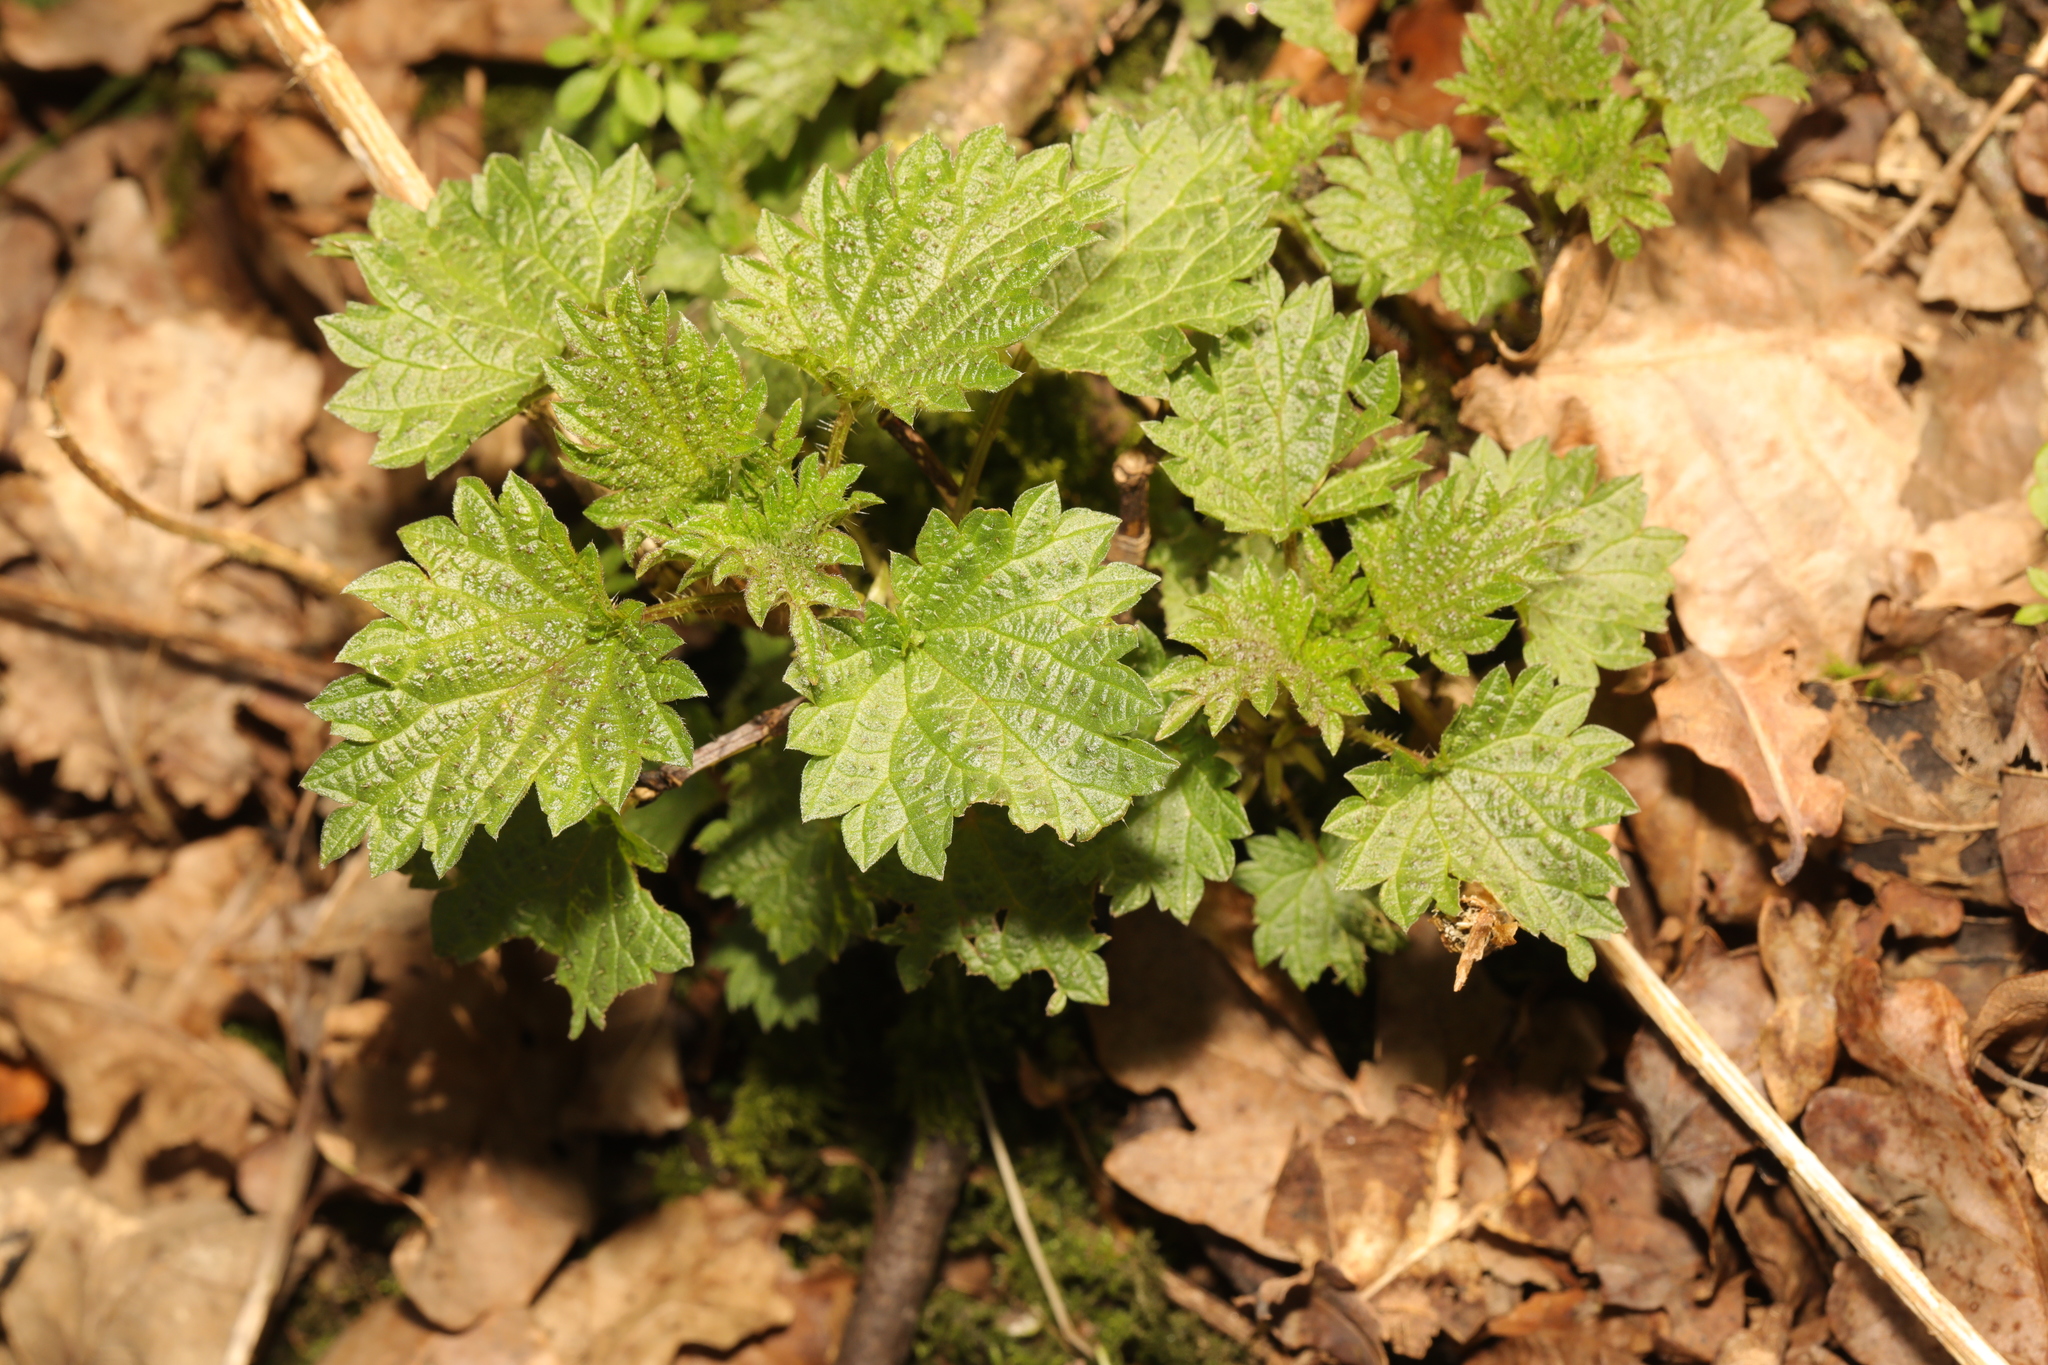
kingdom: Plantae
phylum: Tracheophyta
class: Magnoliopsida
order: Rosales
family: Urticaceae
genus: Urtica
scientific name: Urtica dioica
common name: Common nettle
